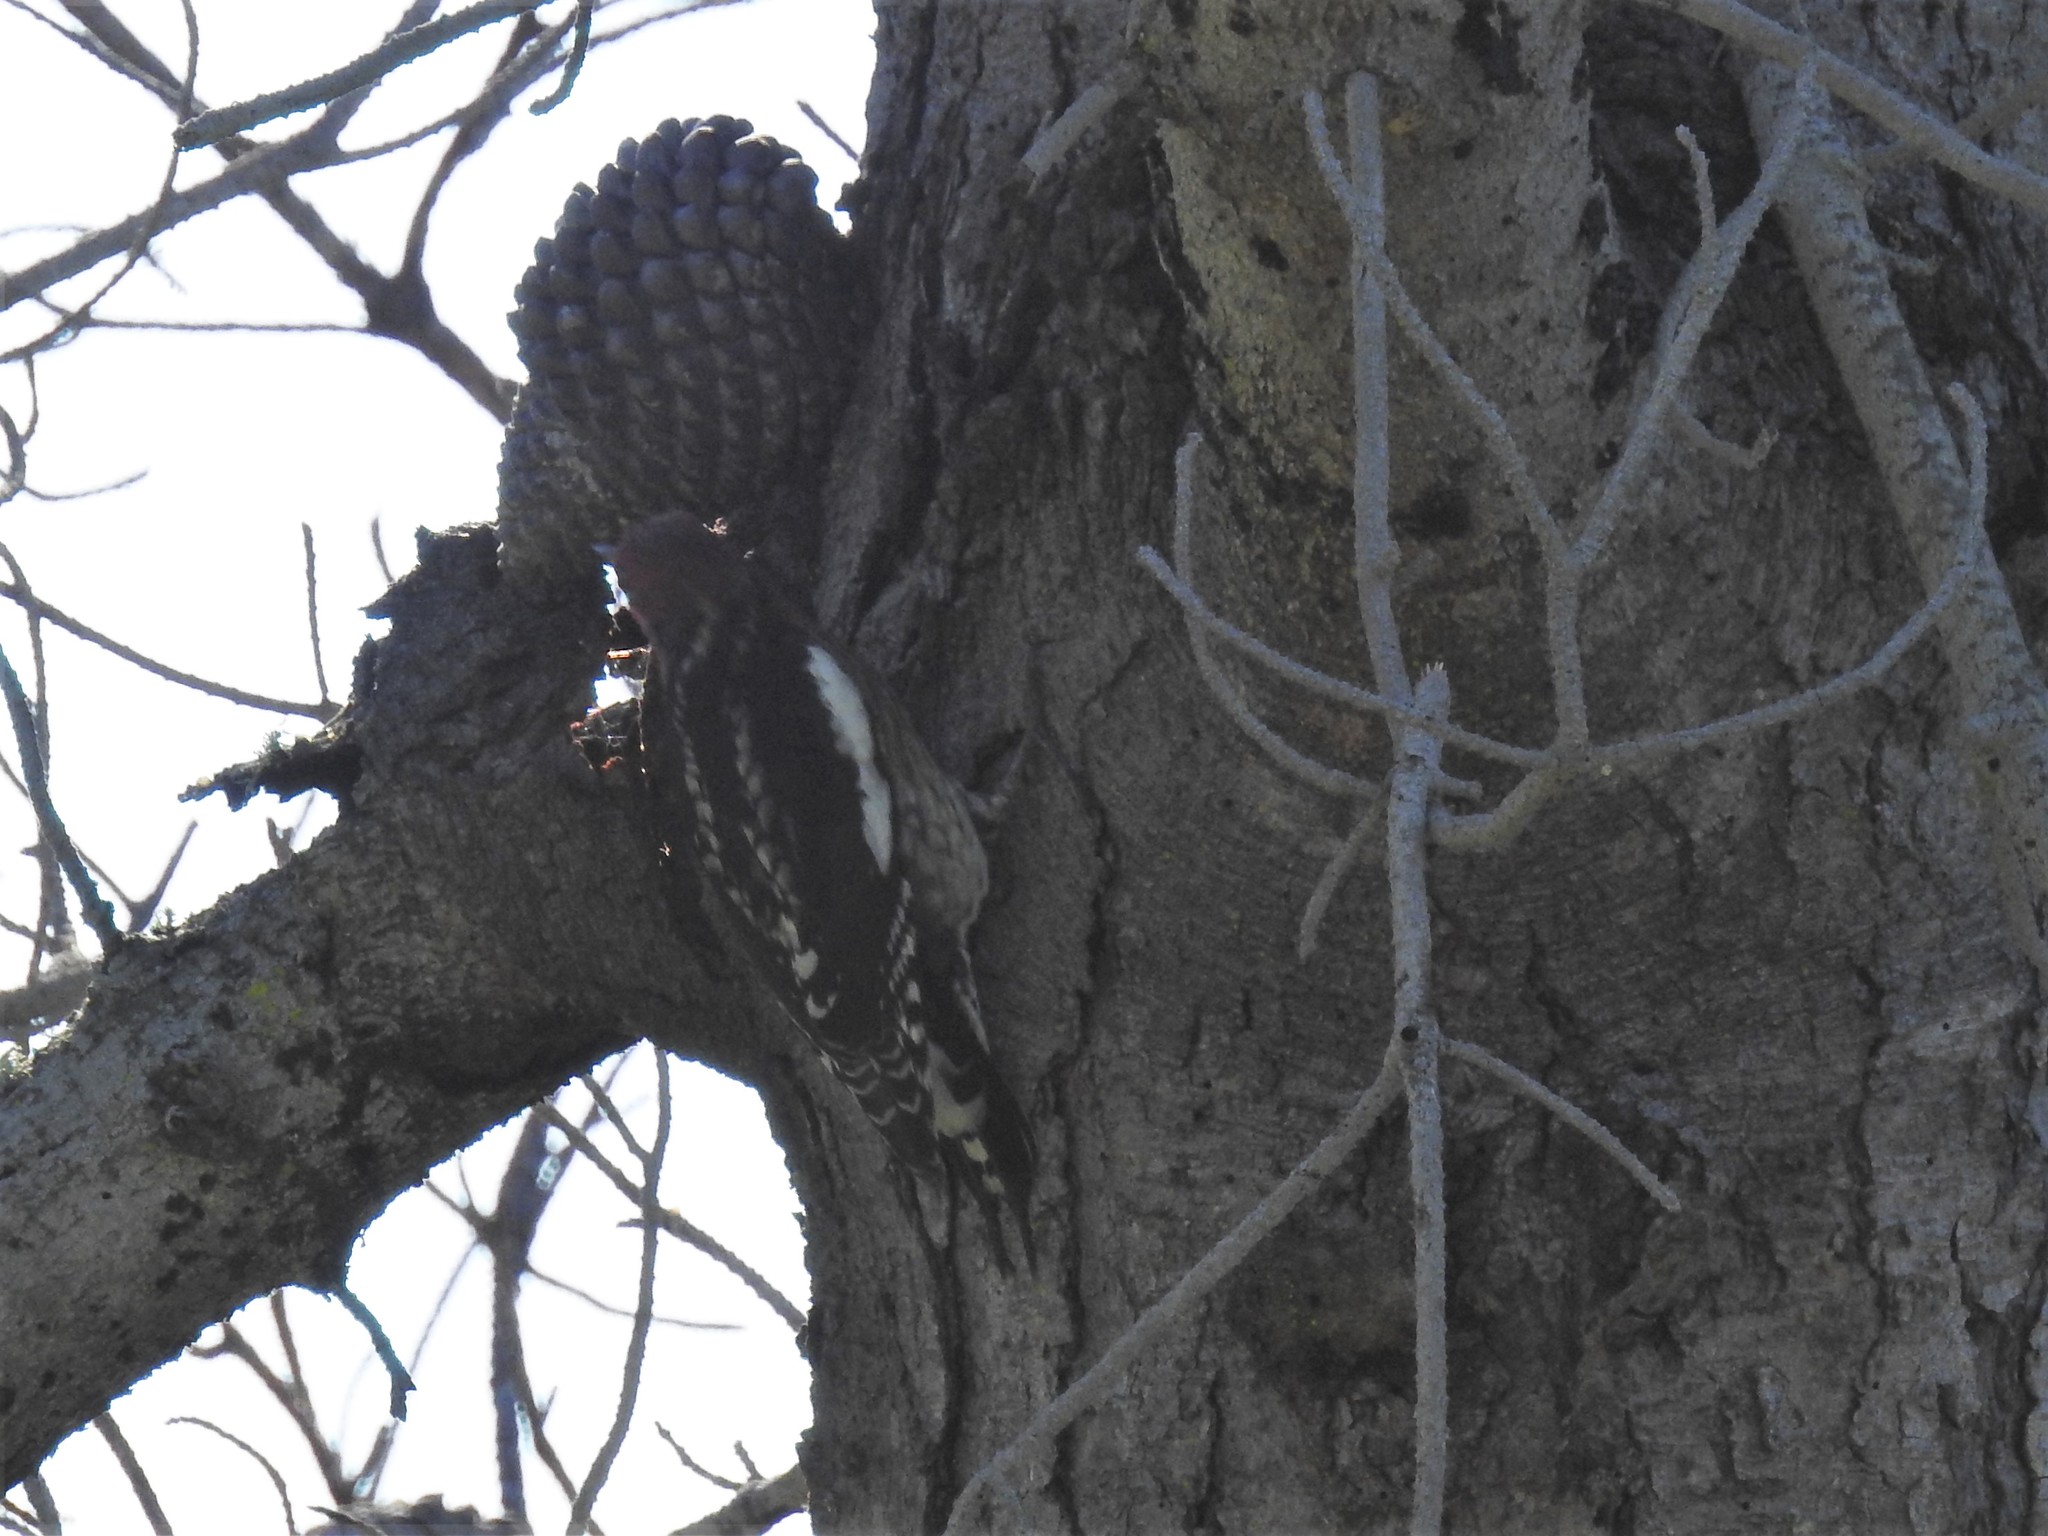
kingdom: Animalia
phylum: Chordata
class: Aves
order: Piciformes
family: Picidae
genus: Sphyrapicus
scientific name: Sphyrapicus ruber
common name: Red-breasted sapsucker
